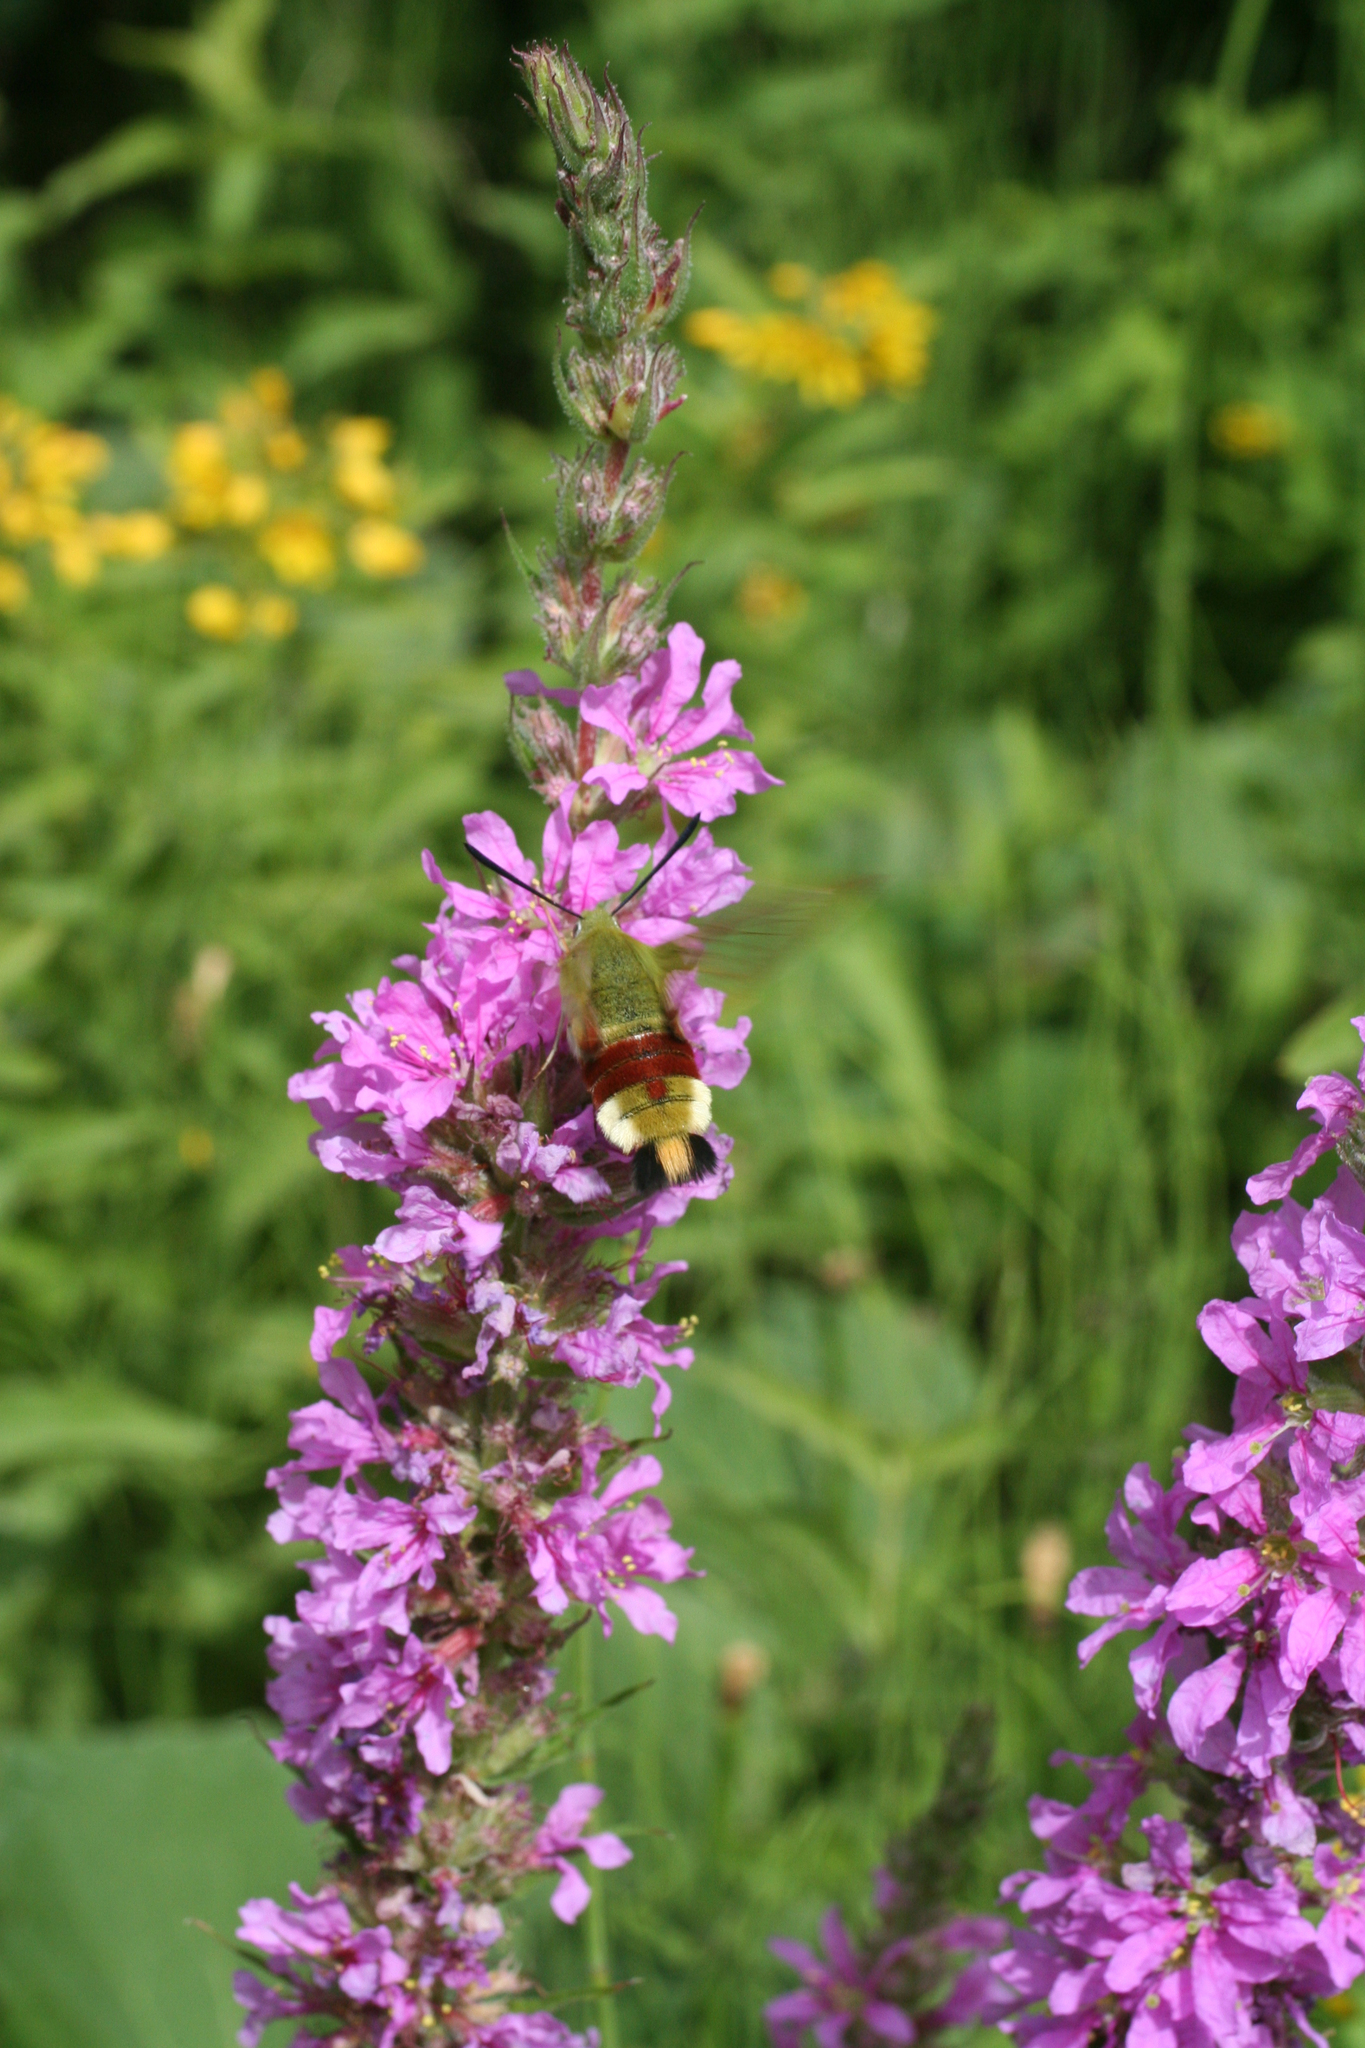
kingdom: Plantae
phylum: Tracheophyta
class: Magnoliopsida
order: Myrtales
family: Lythraceae
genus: Lythrum
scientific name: Lythrum salicaria
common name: Purple loosestrife
